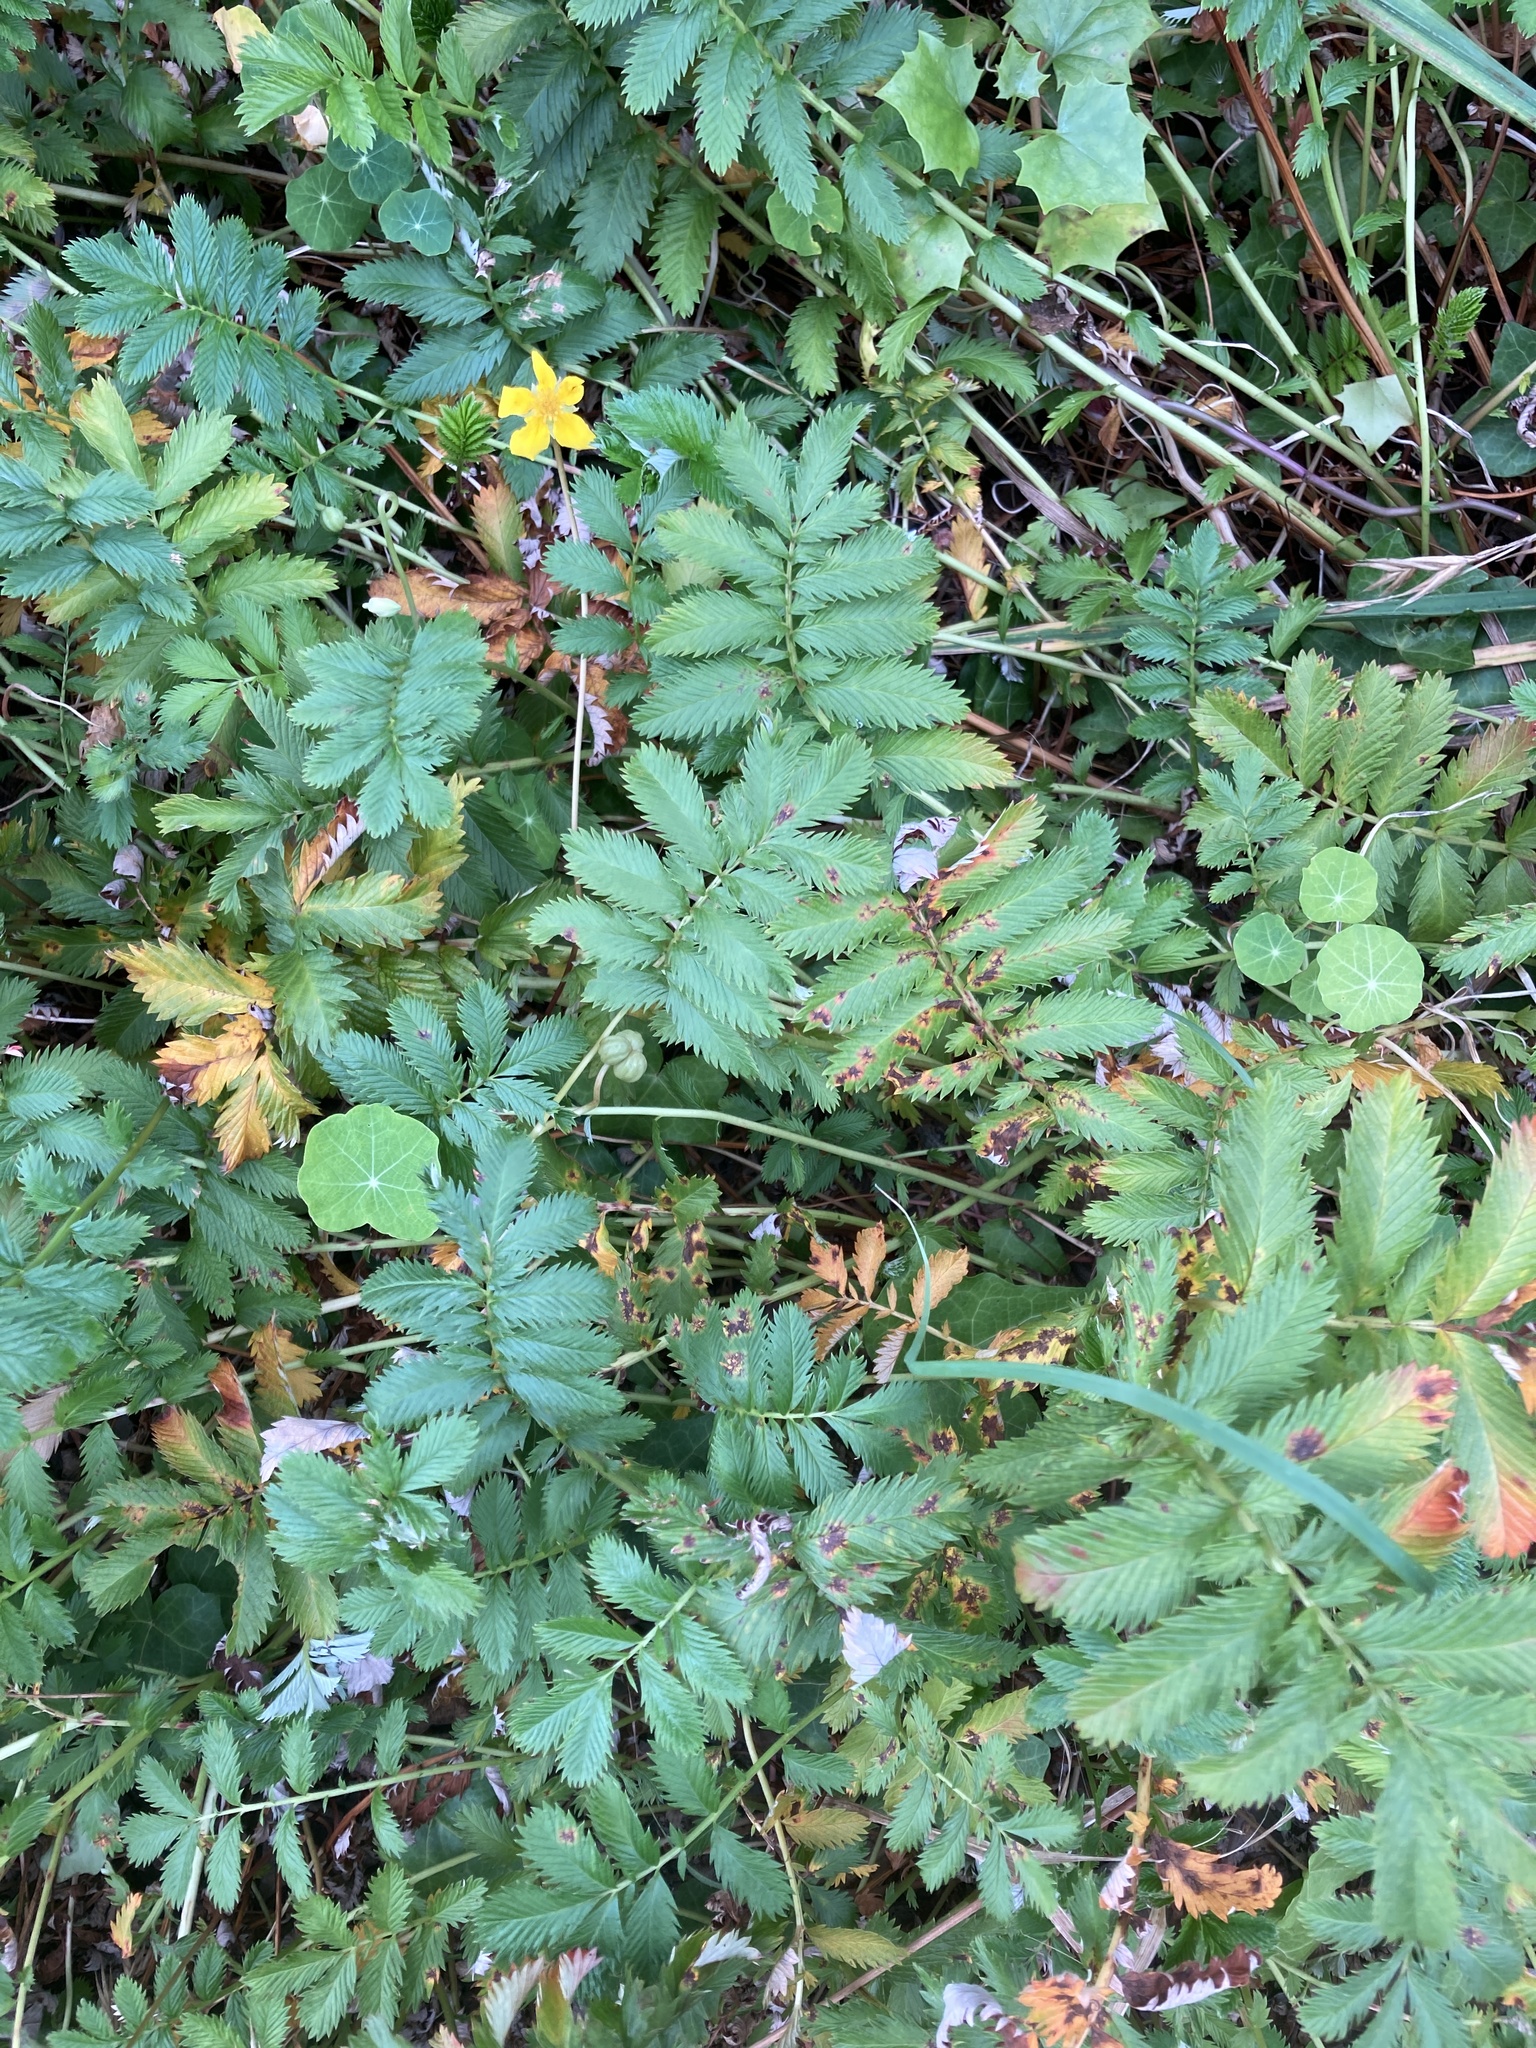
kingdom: Plantae
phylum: Tracheophyta
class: Magnoliopsida
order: Rosales
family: Rosaceae
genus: Argentina
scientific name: Argentina anserina
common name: Common silverweed
